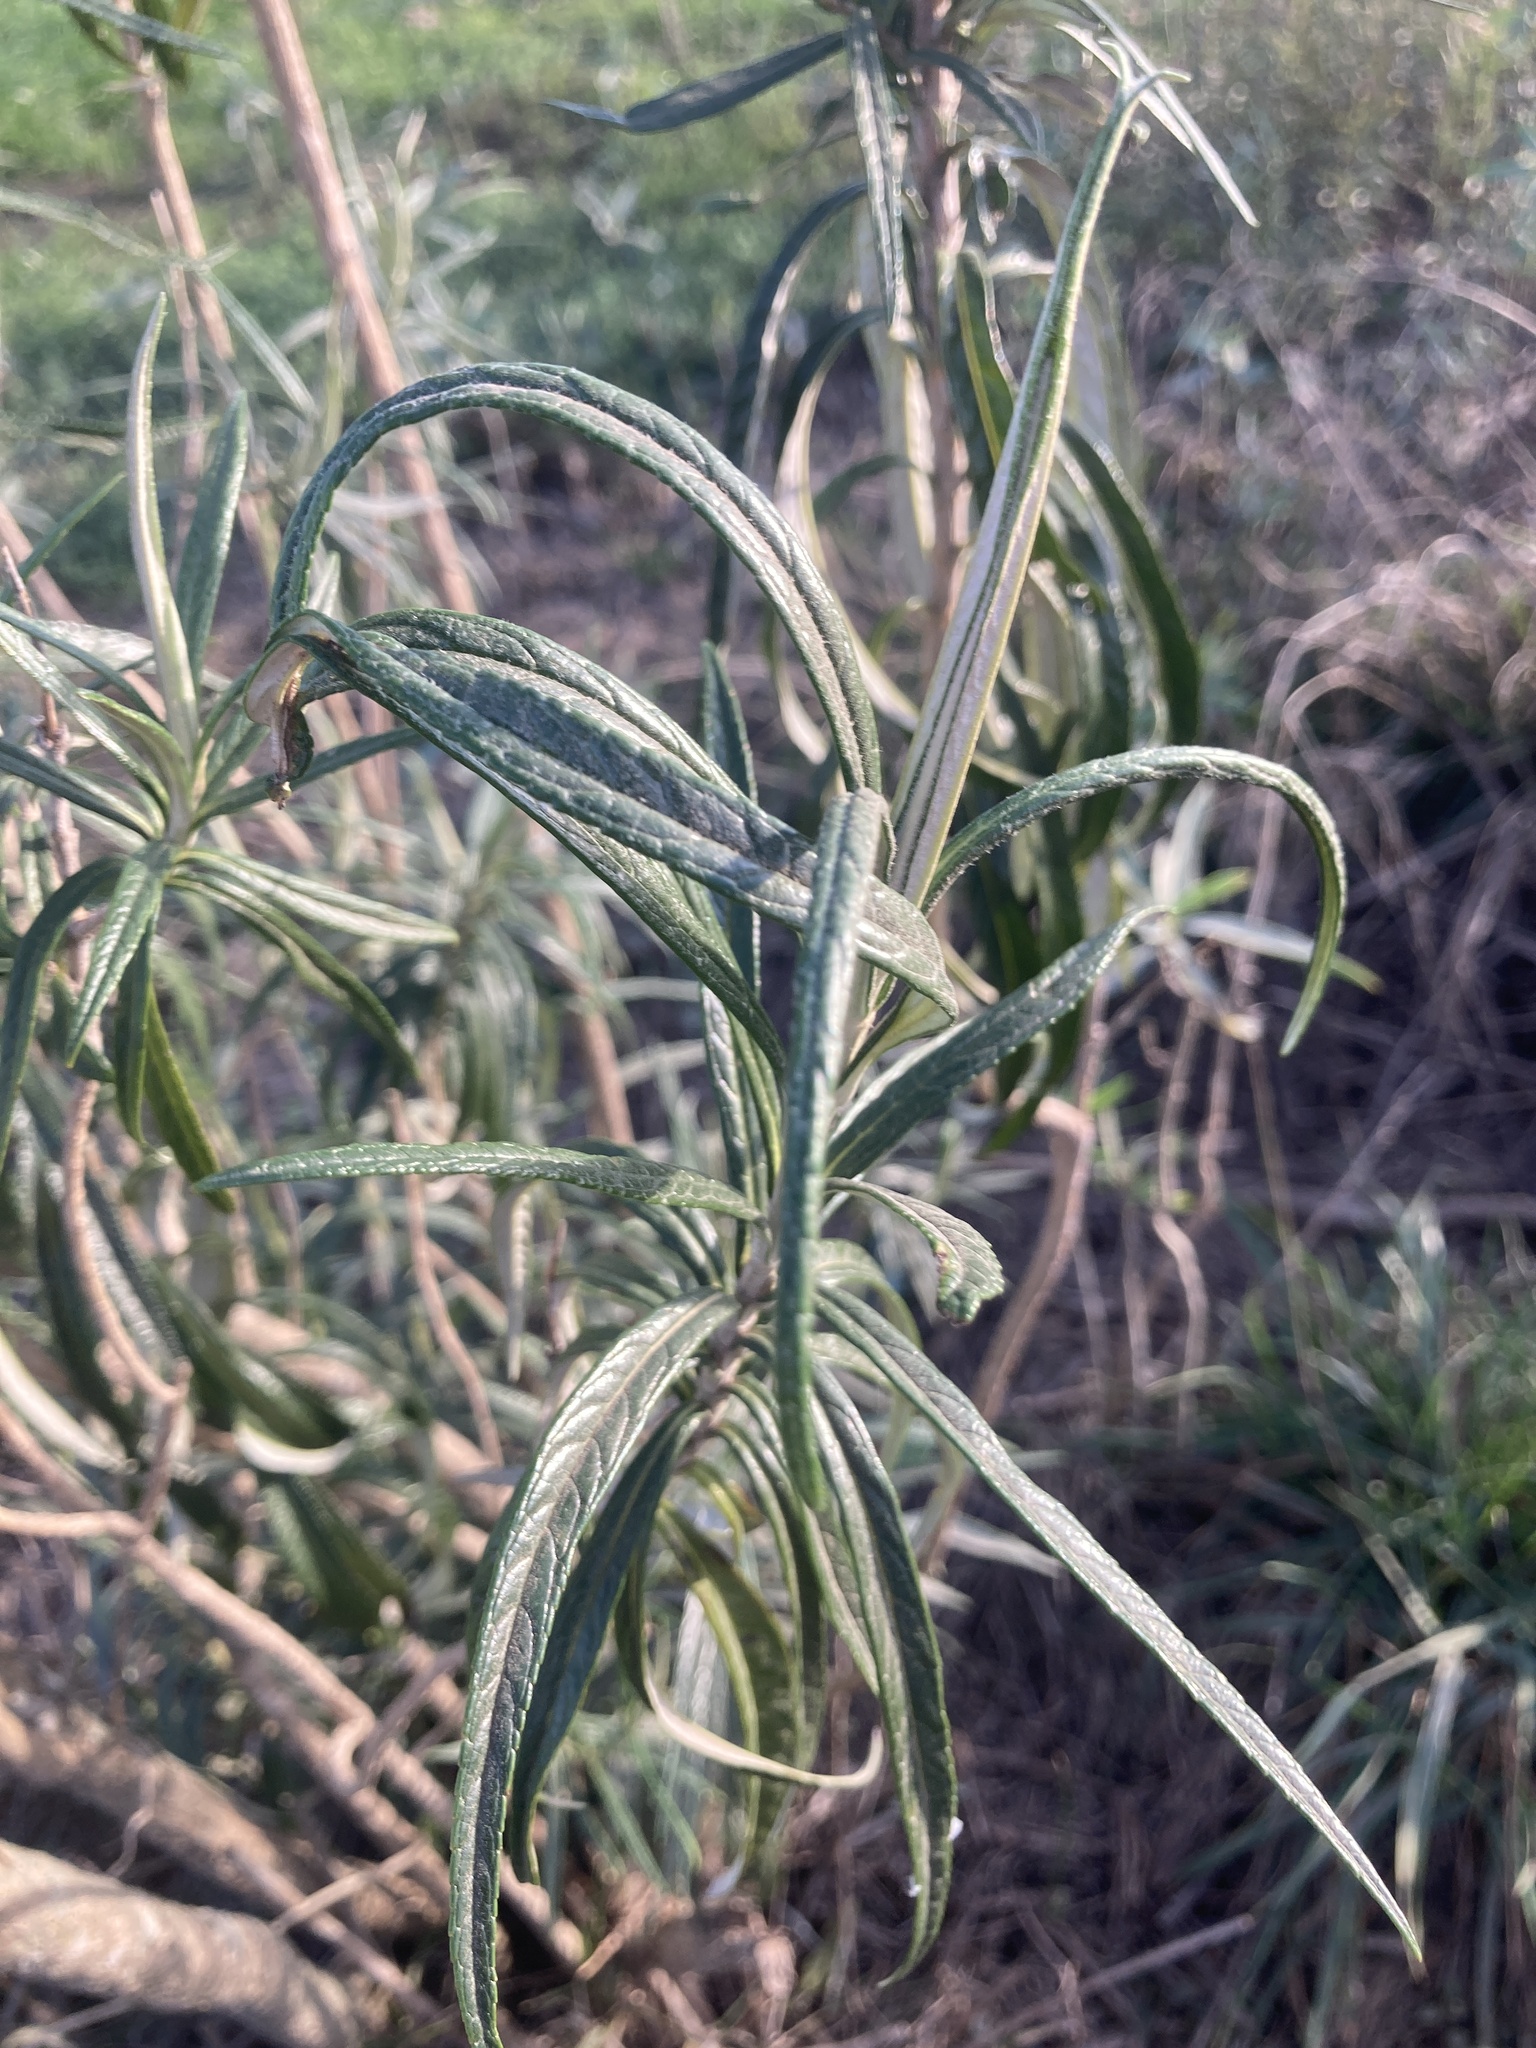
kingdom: Plantae
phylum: Tracheophyta
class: Magnoliopsida
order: Lamiales
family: Scrophulariaceae
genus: Buddleja
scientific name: Buddleja thyrsoides
